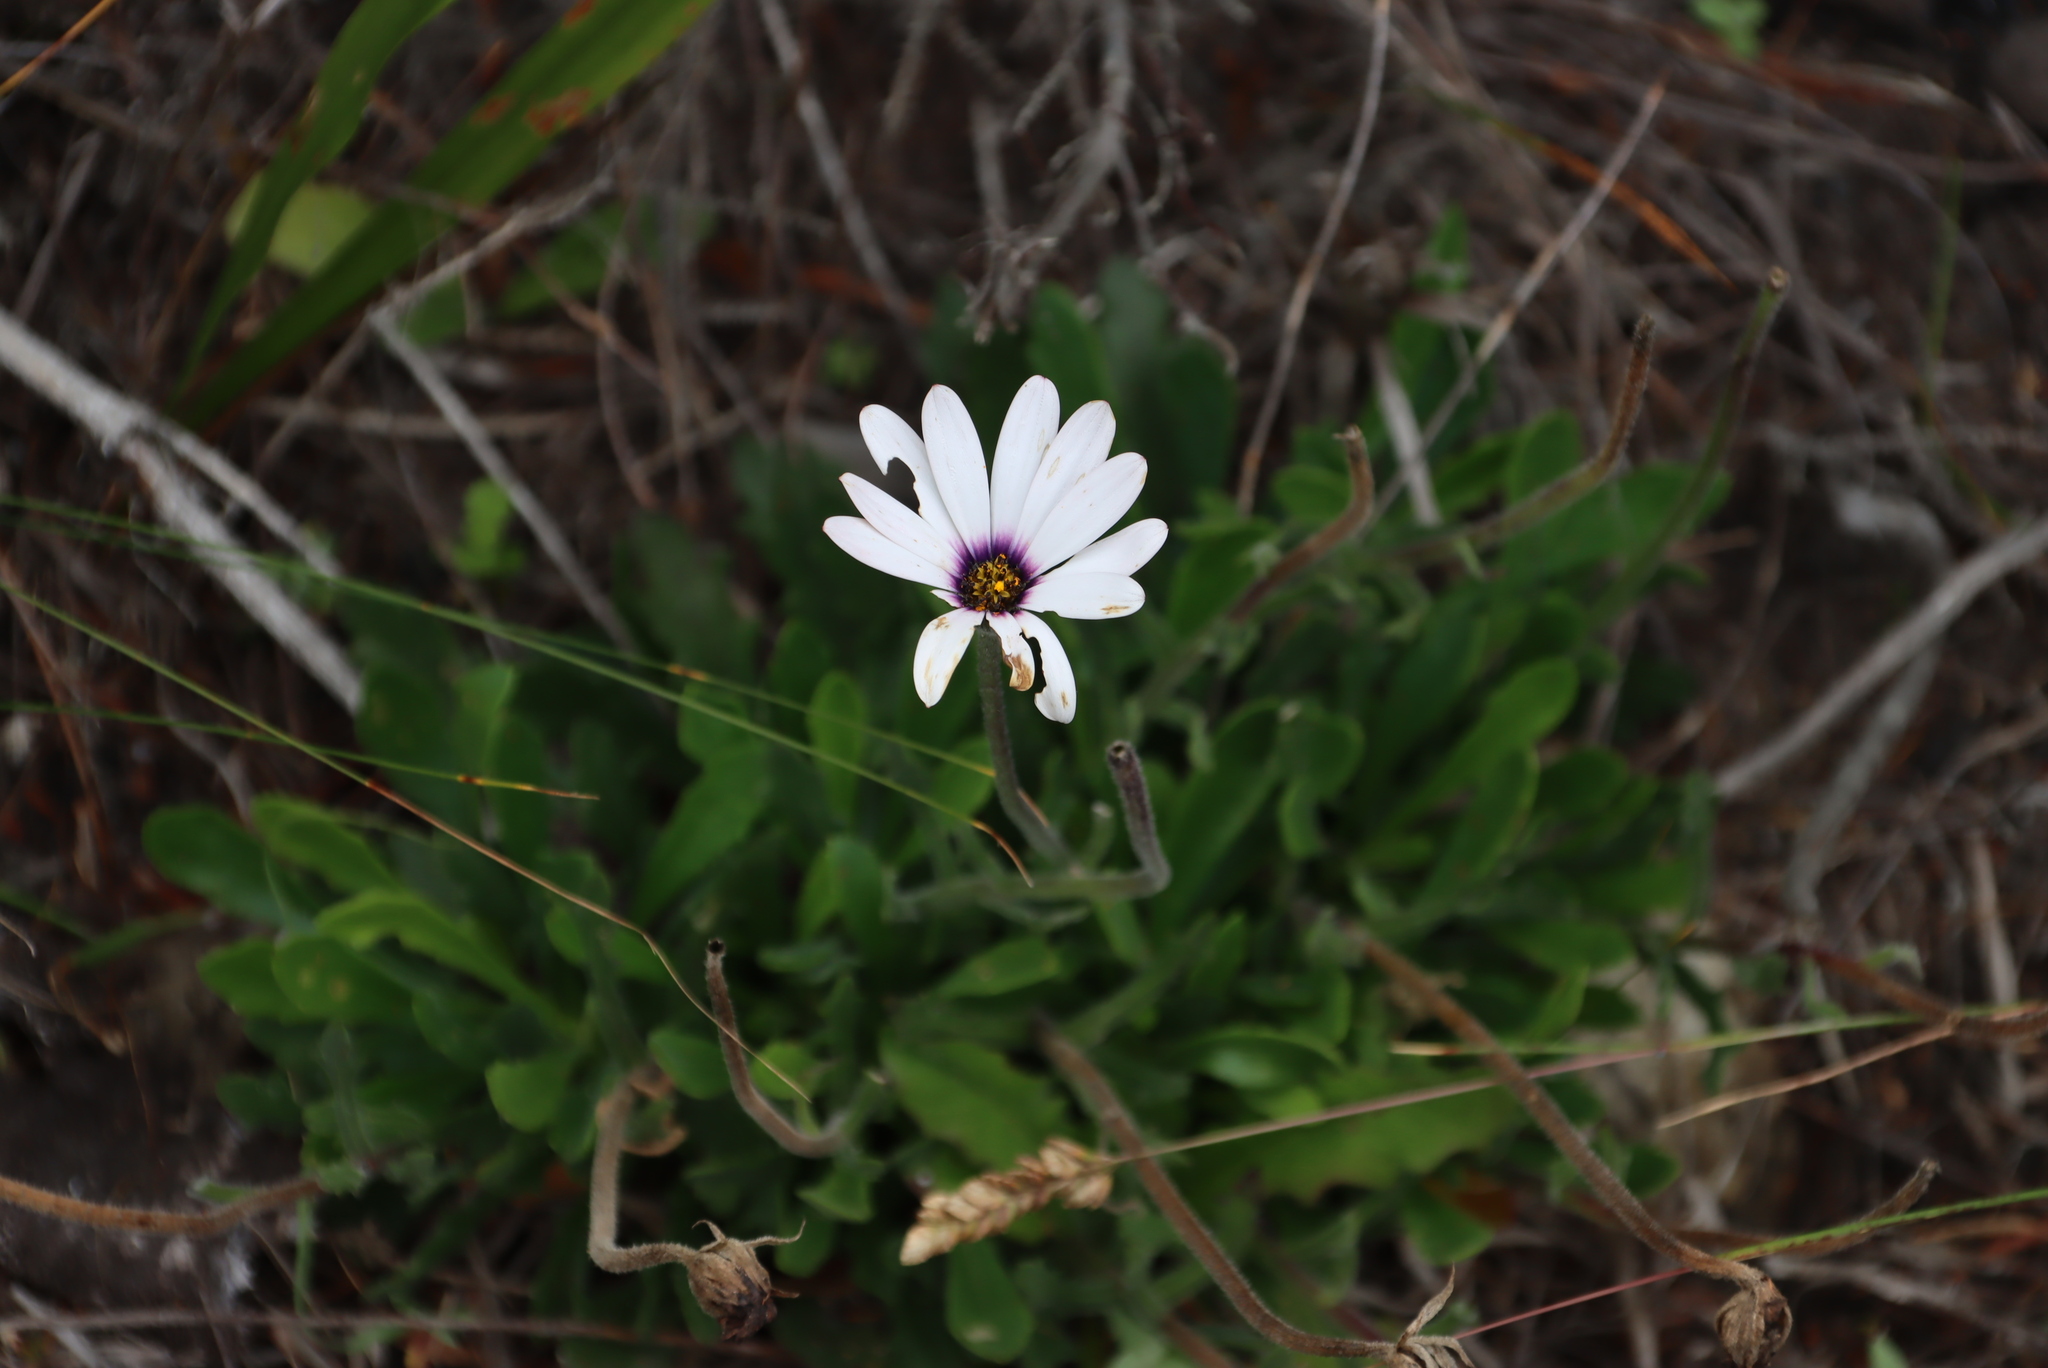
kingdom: Plantae
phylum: Tracheophyta
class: Magnoliopsida
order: Asterales
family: Asteraceae
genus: Dimorphotheca
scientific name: Dimorphotheca nudicaulis
